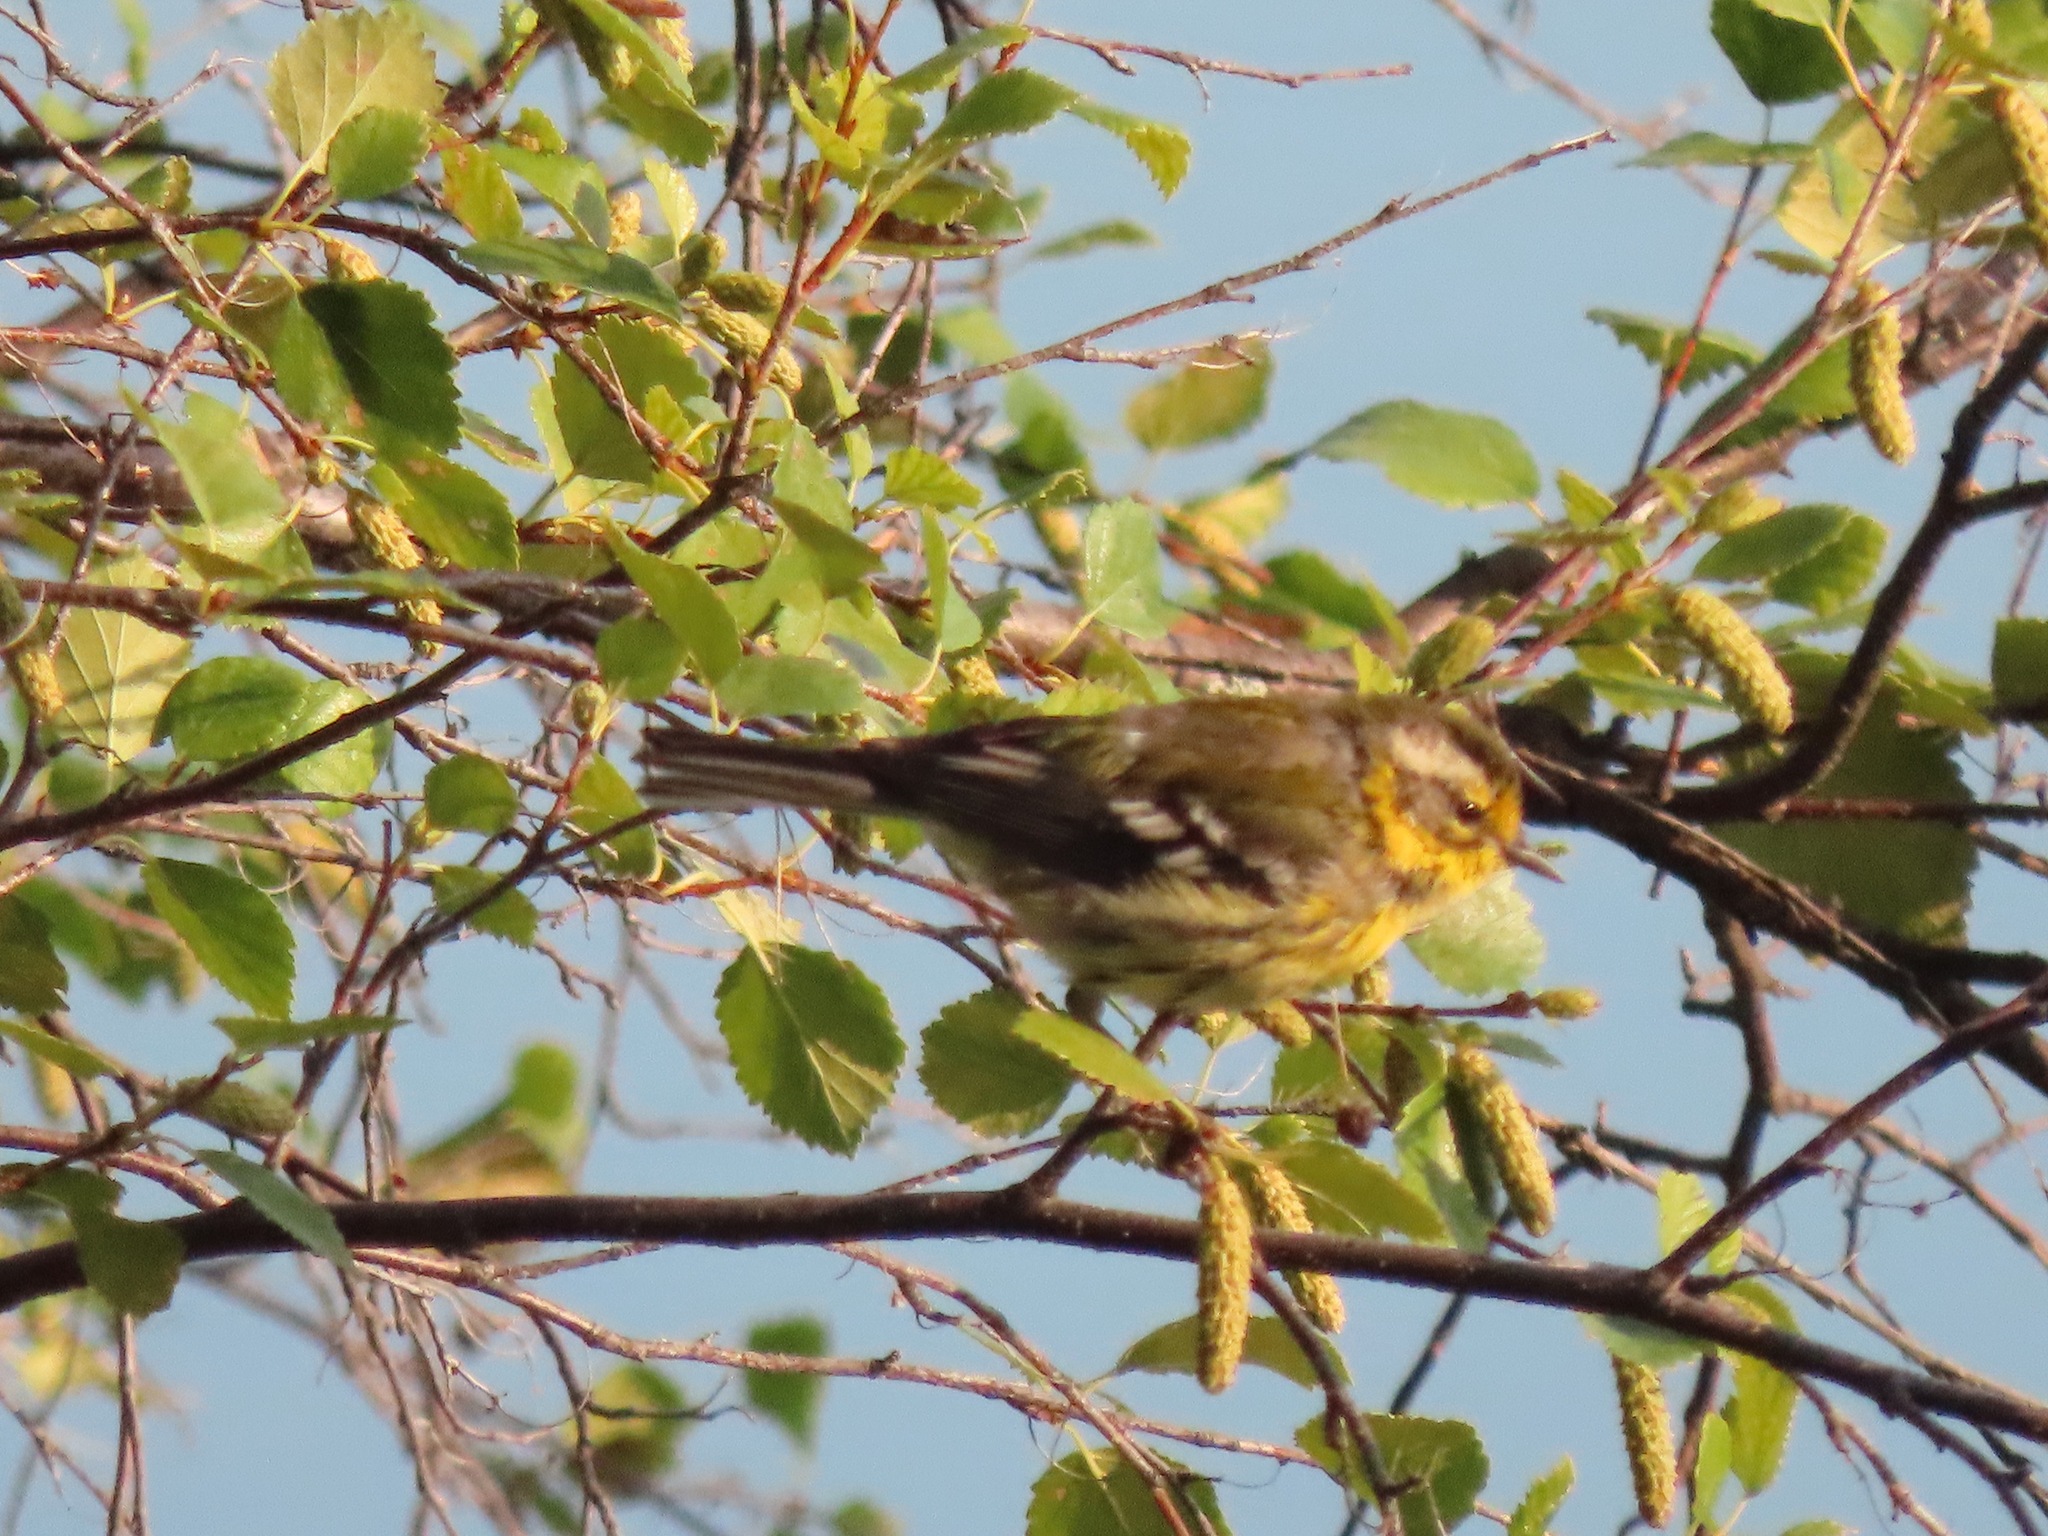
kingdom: Animalia
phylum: Chordata
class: Aves
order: Passeriformes
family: Parulidae
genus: Setophaga
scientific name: Setophaga townsendi
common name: Townsend's warbler
